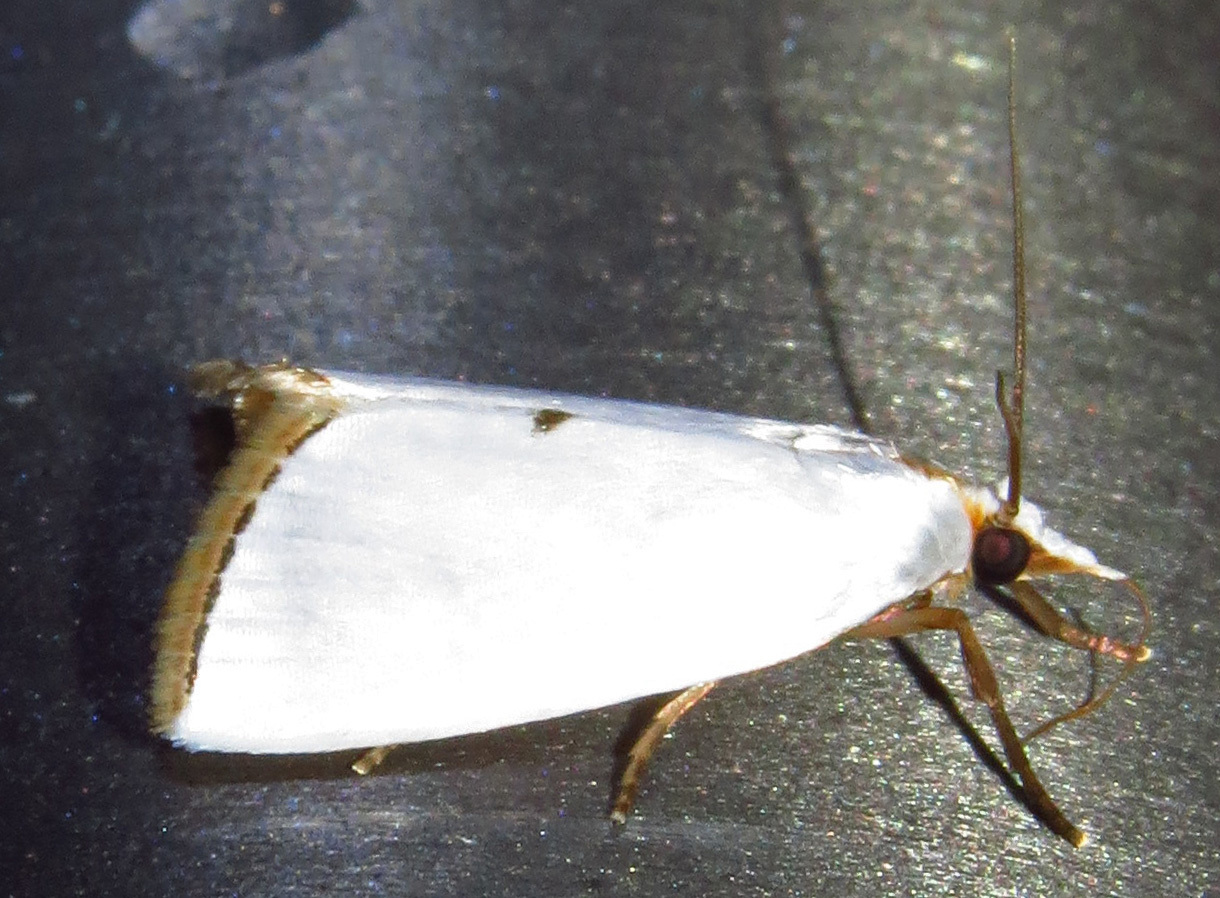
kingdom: Animalia
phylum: Arthropoda
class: Insecta
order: Lepidoptera
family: Crambidae
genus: Argyria
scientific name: Argyria nivalis
